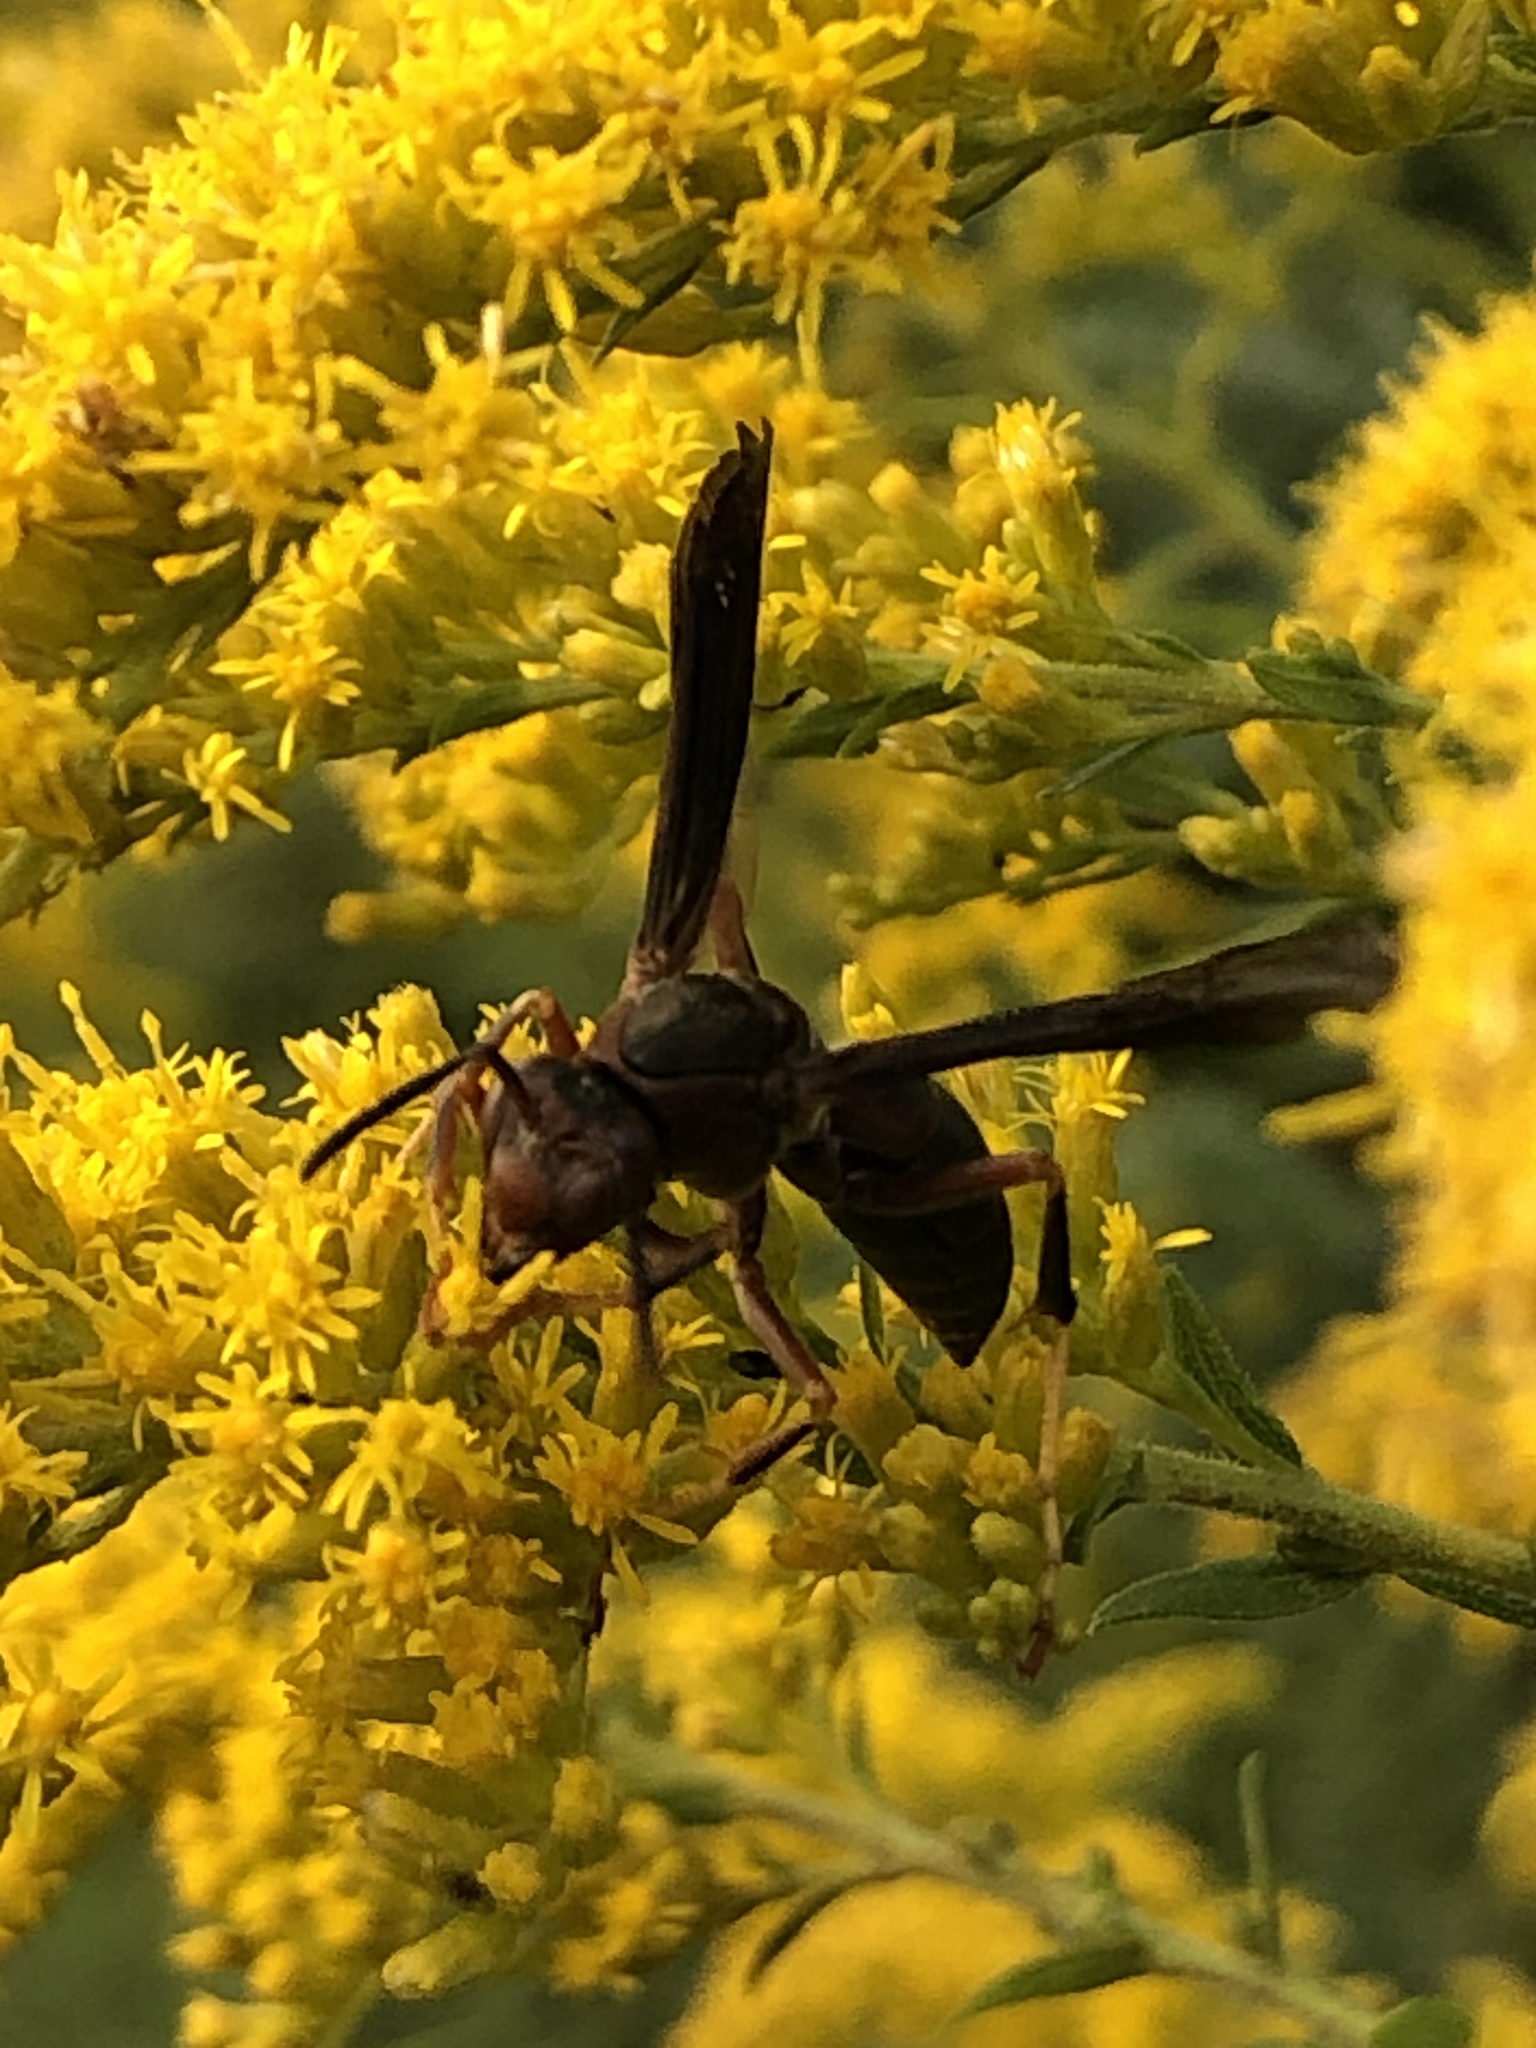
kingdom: Animalia
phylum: Arthropoda
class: Insecta
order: Hymenoptera
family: Eumenidae
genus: Polistes
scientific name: Polistes metricus
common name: Metric paper wasp
